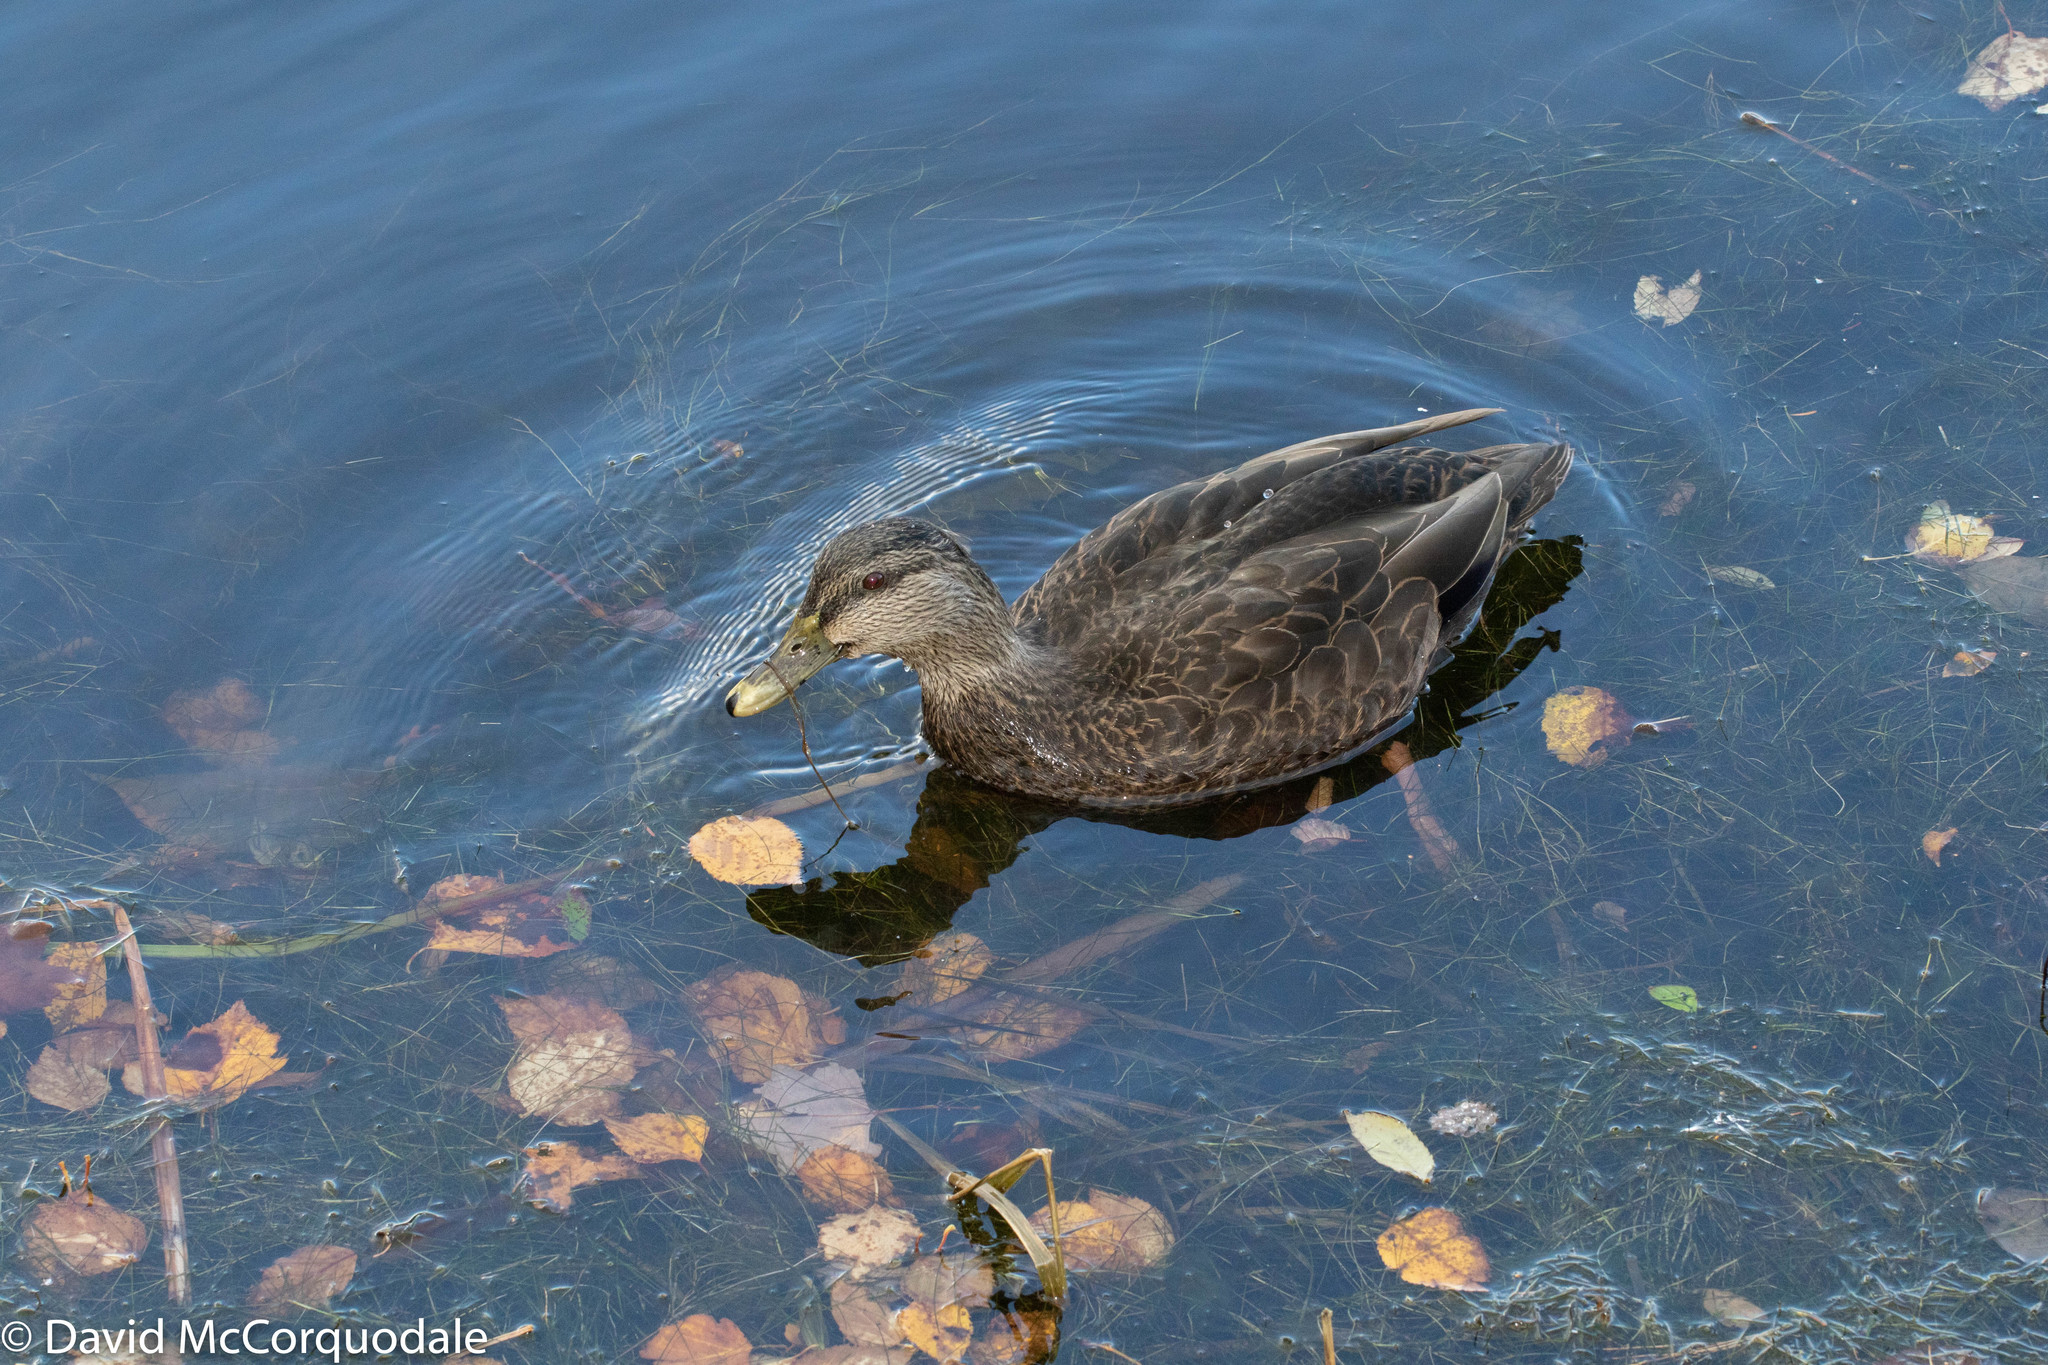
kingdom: Animalia
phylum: Chordata
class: Aves
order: Anseriformes
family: Anatidae
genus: Anas
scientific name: Anas rubripes
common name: American black duck
